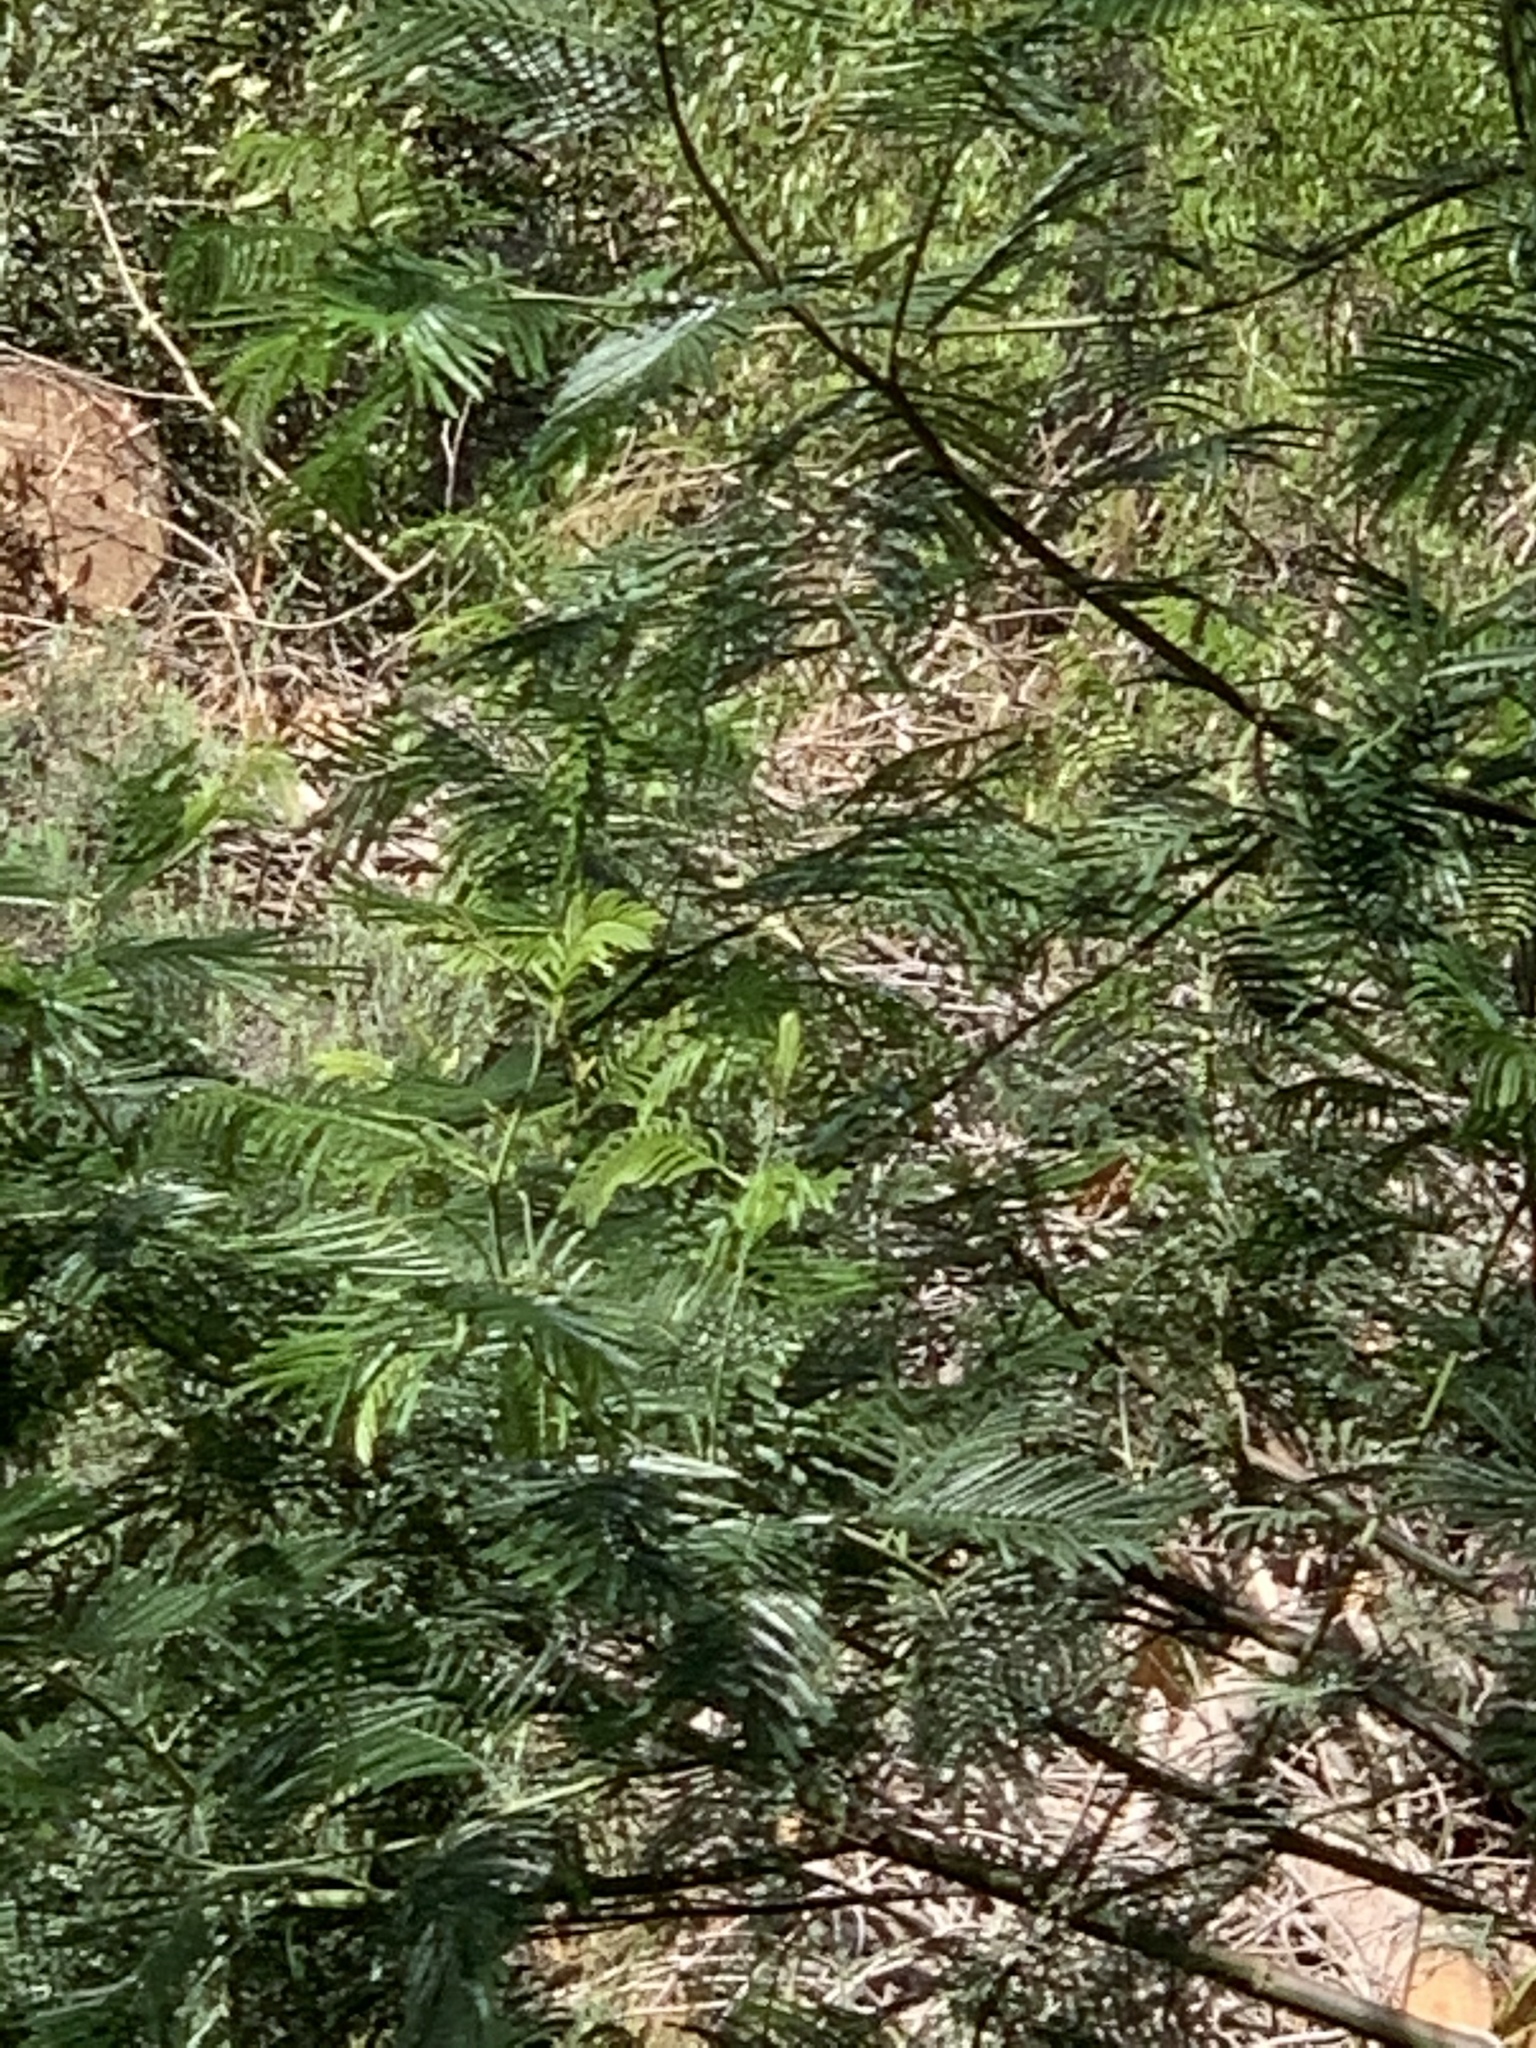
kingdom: Plantae
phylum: Tracheophyta
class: Magnoliopsida
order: Fabales
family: Fabaceae
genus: Acacia
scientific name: Acacia mearnsii
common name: Black wattle
